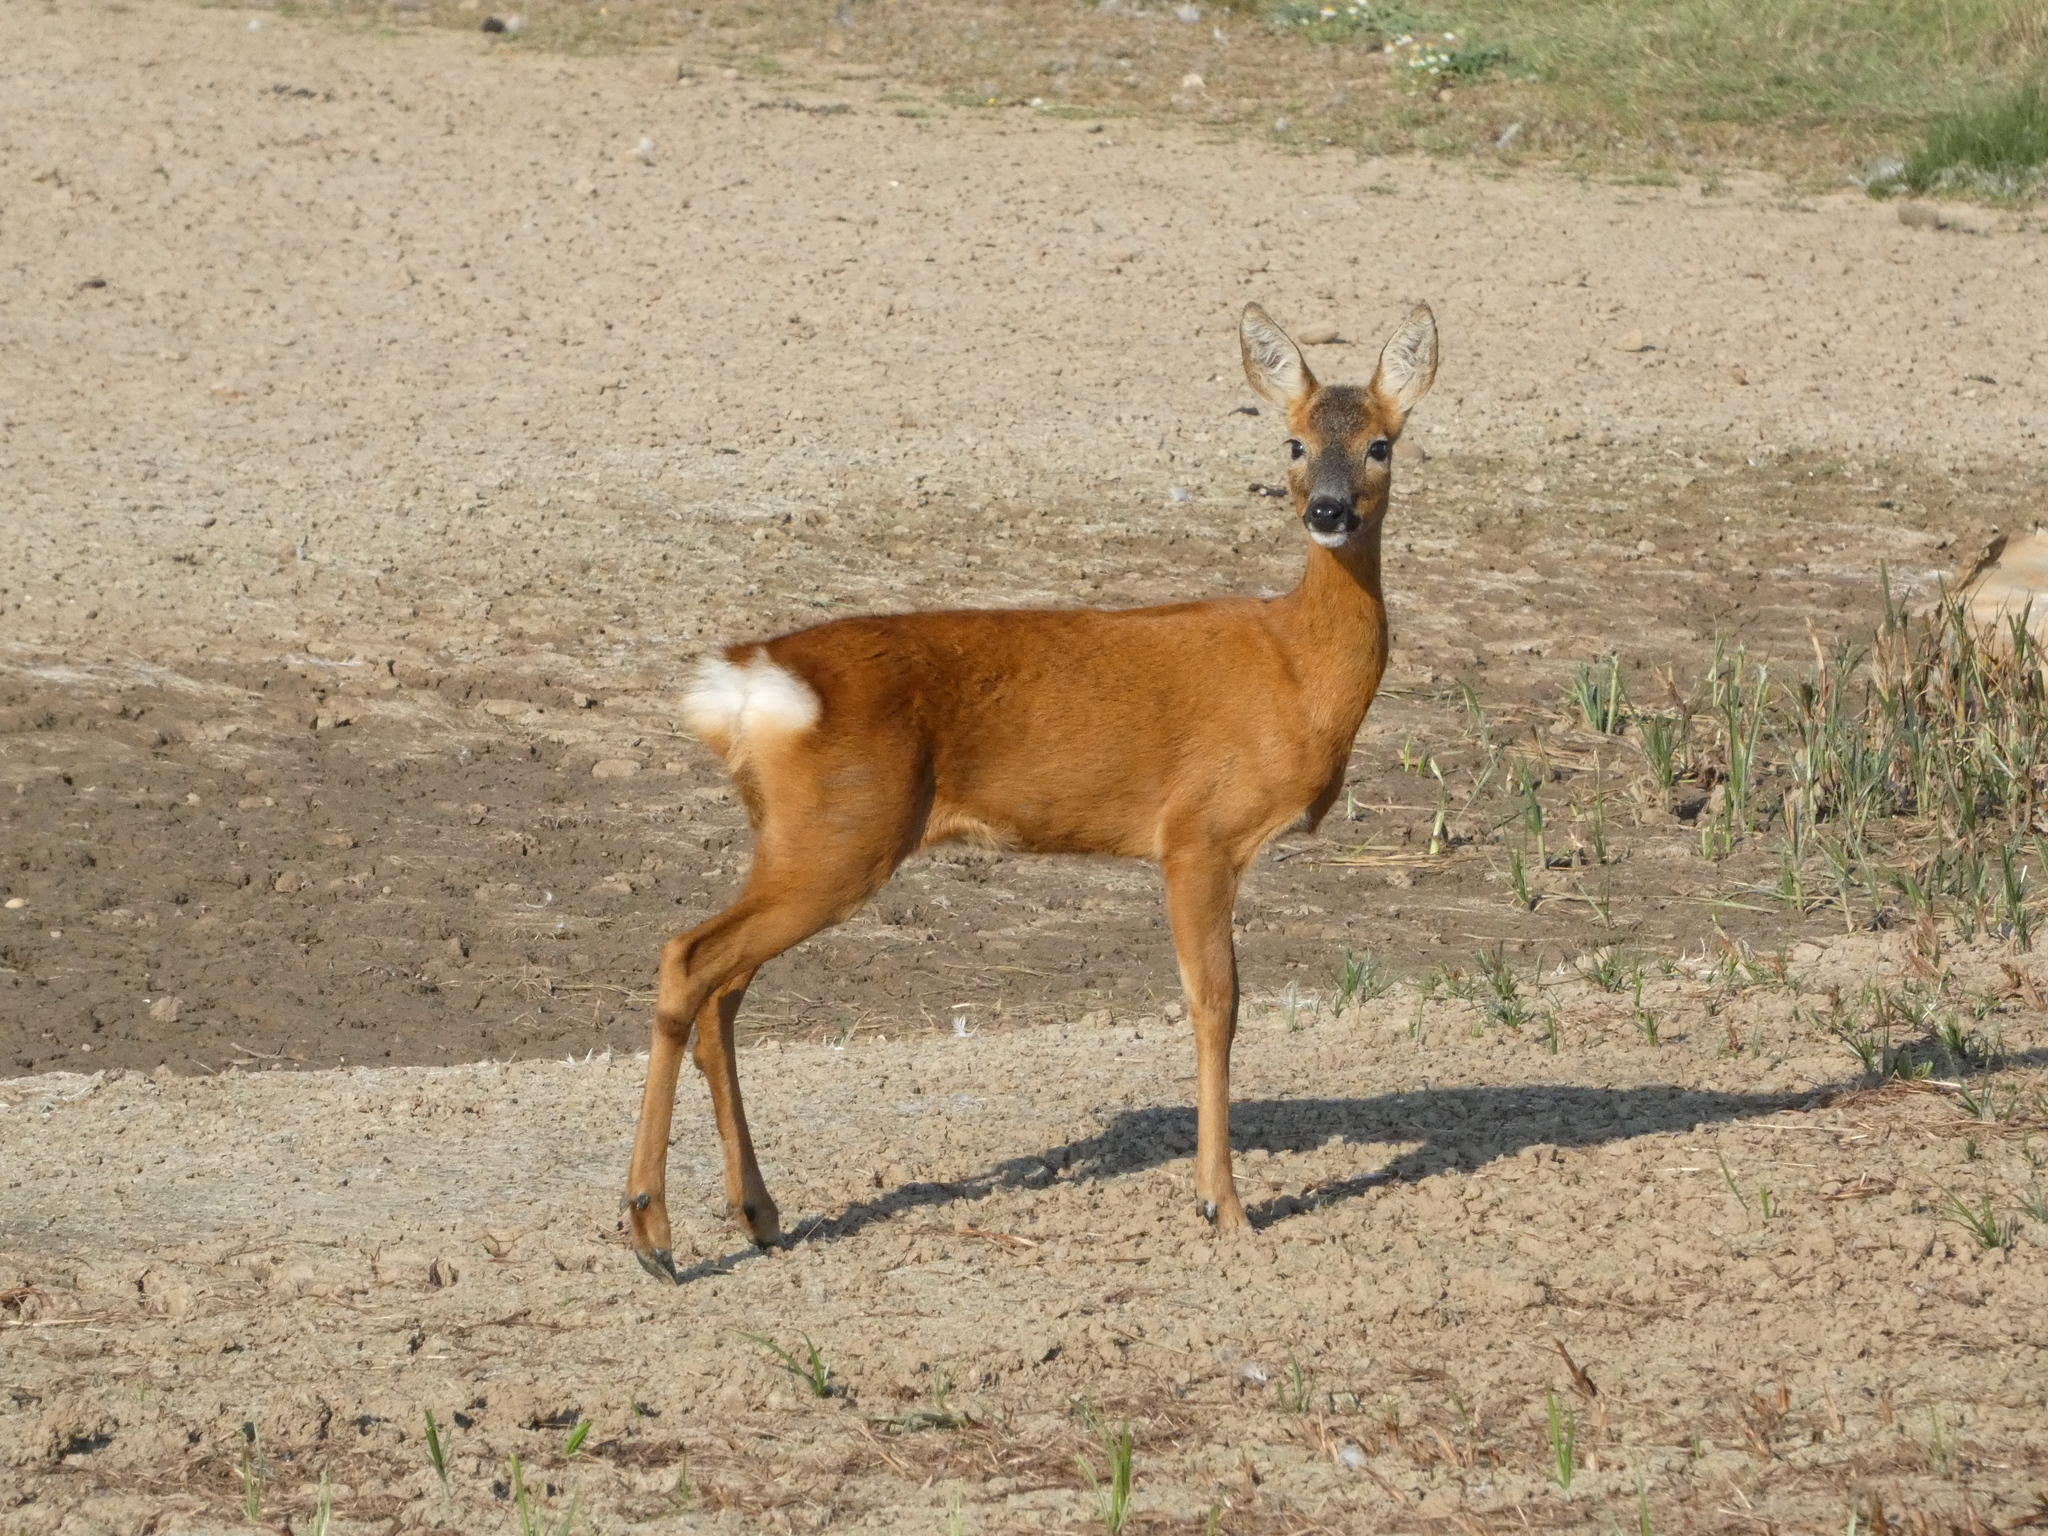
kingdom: Animalia
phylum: Chordata
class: Mammalia
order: Artiodactyla
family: Cervidae
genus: Capreolus
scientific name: Capreolus capreolus
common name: Western roe deer
